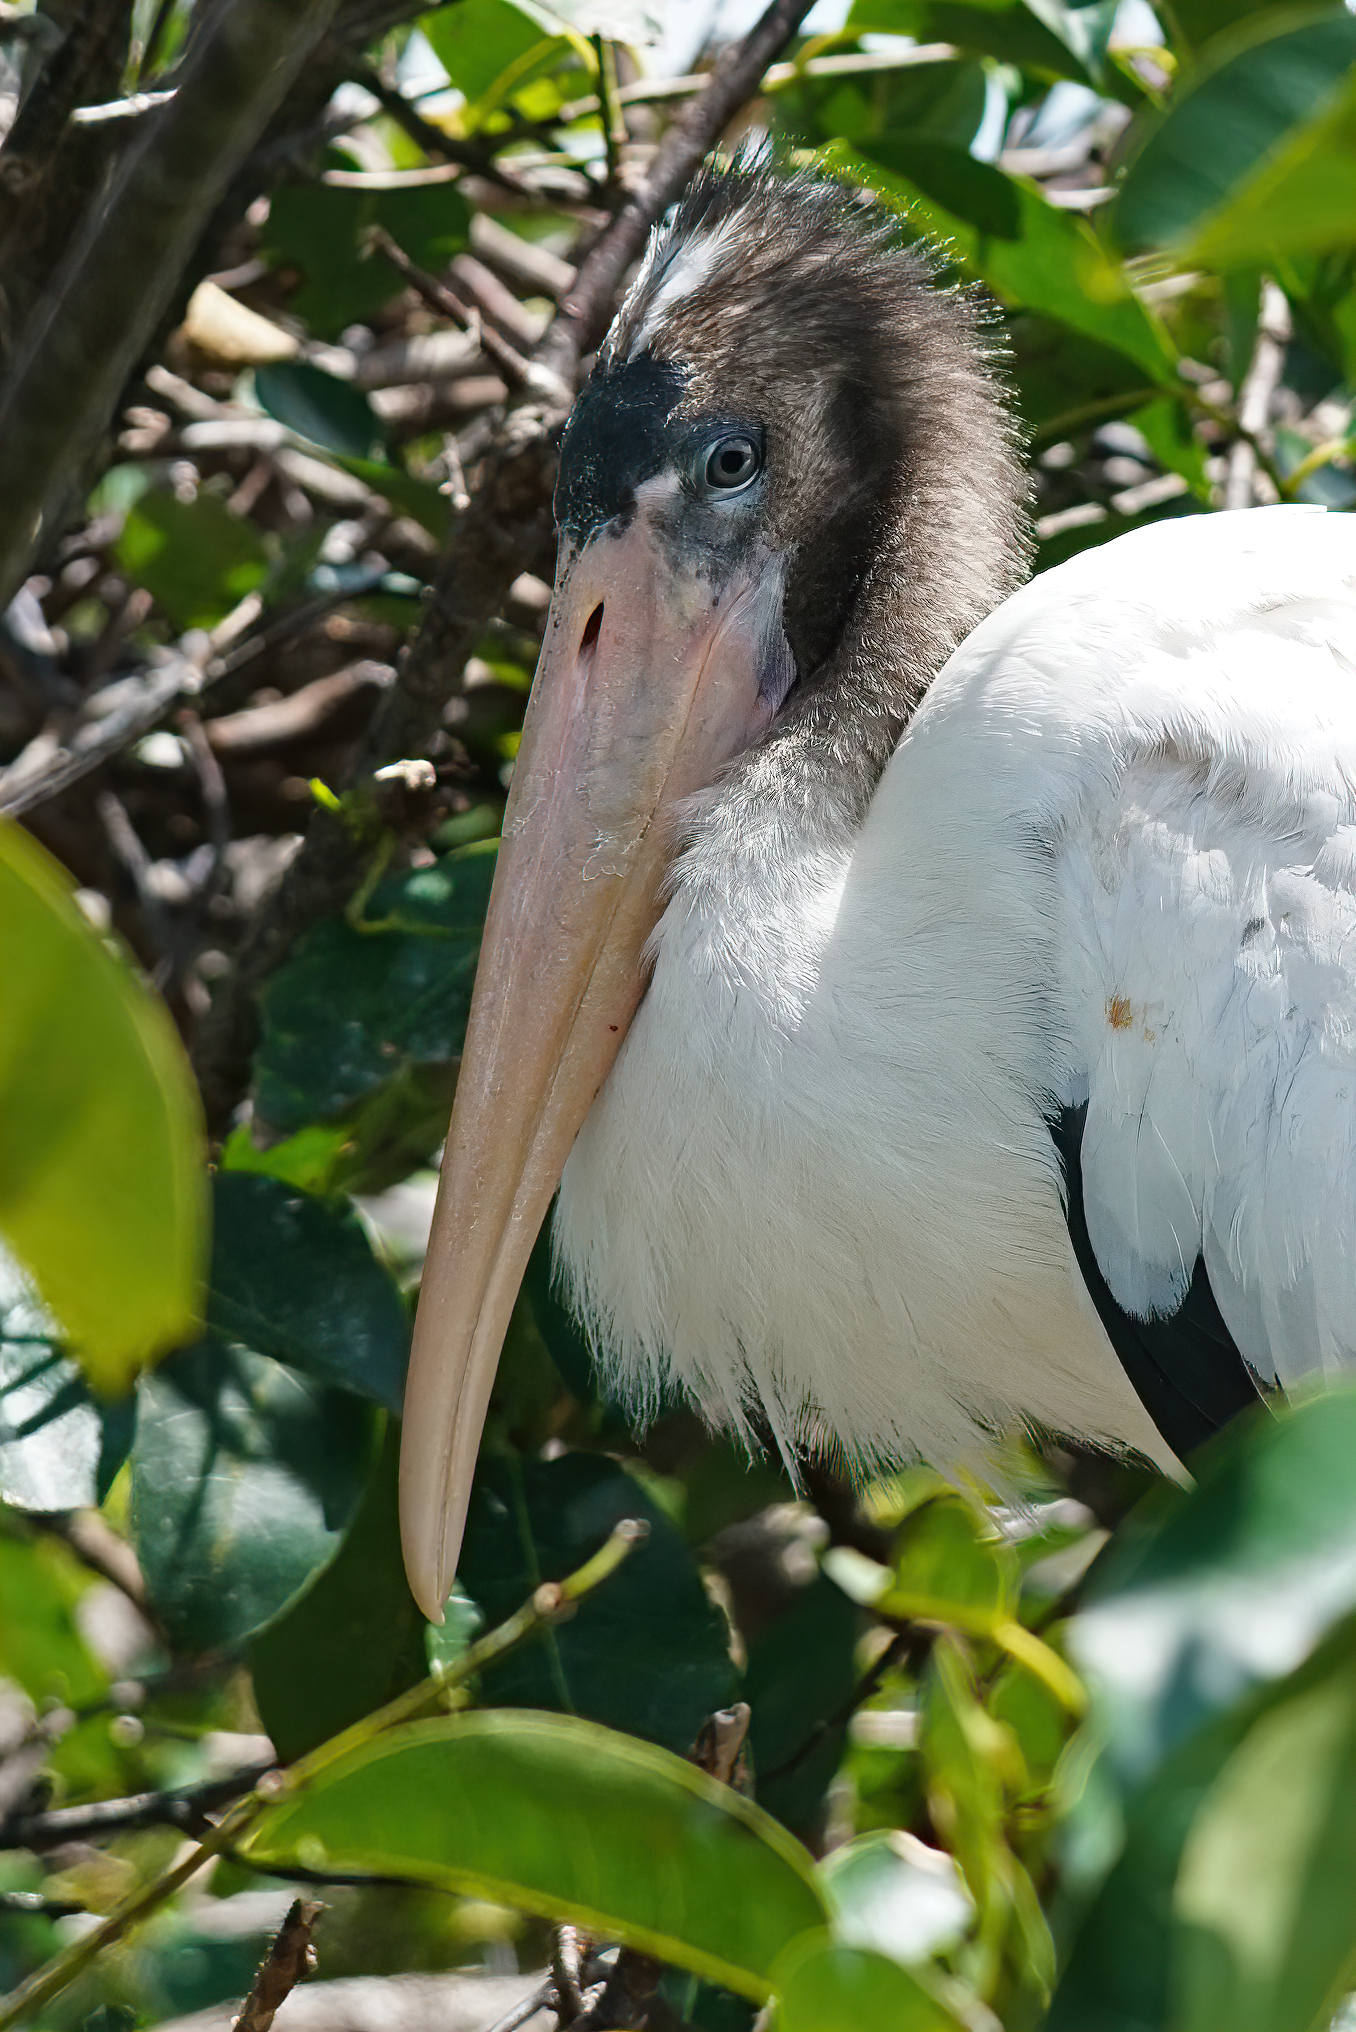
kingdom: Animalia
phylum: Chordata
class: Aves
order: Ciconiiformes
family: Ciconiidae
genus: Mycteria
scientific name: Mycteria americana
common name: Wood stork
